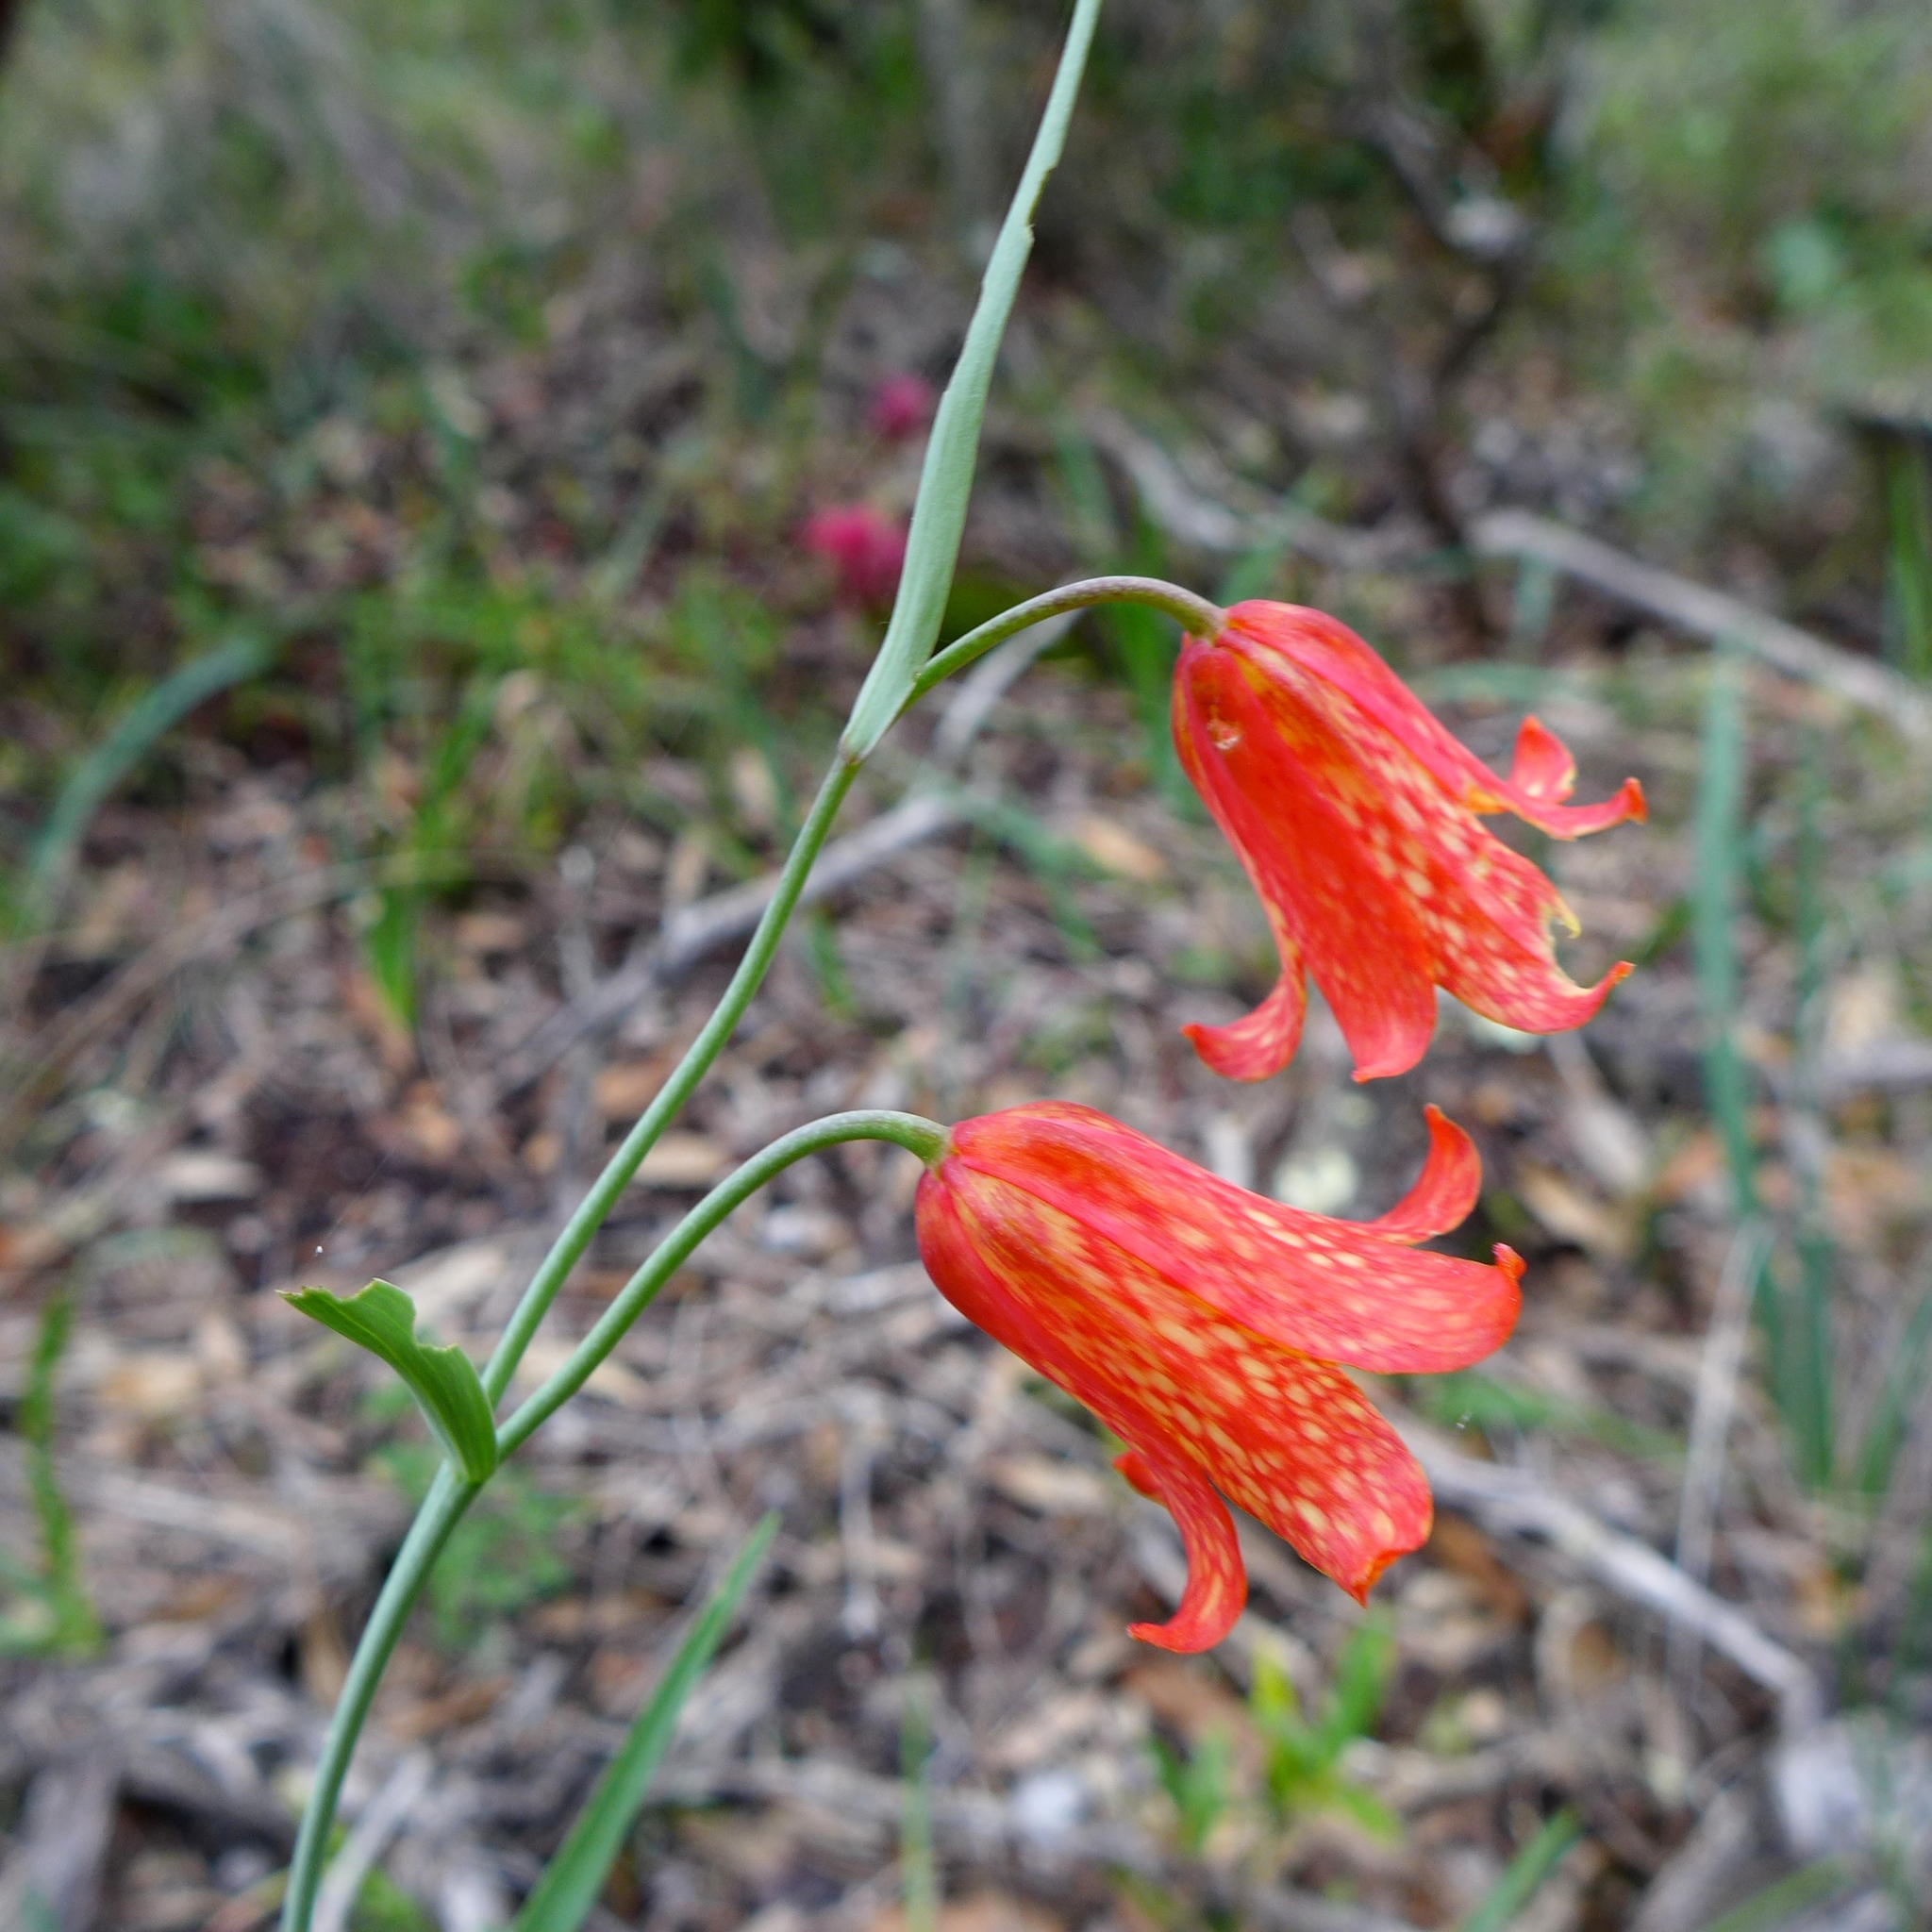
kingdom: Plantae
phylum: Tracheophyta
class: Liliopsida
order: Liliales
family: Liliaceae
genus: Fritillaria
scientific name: Fritillaria recurva
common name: Scarlet fritillary
